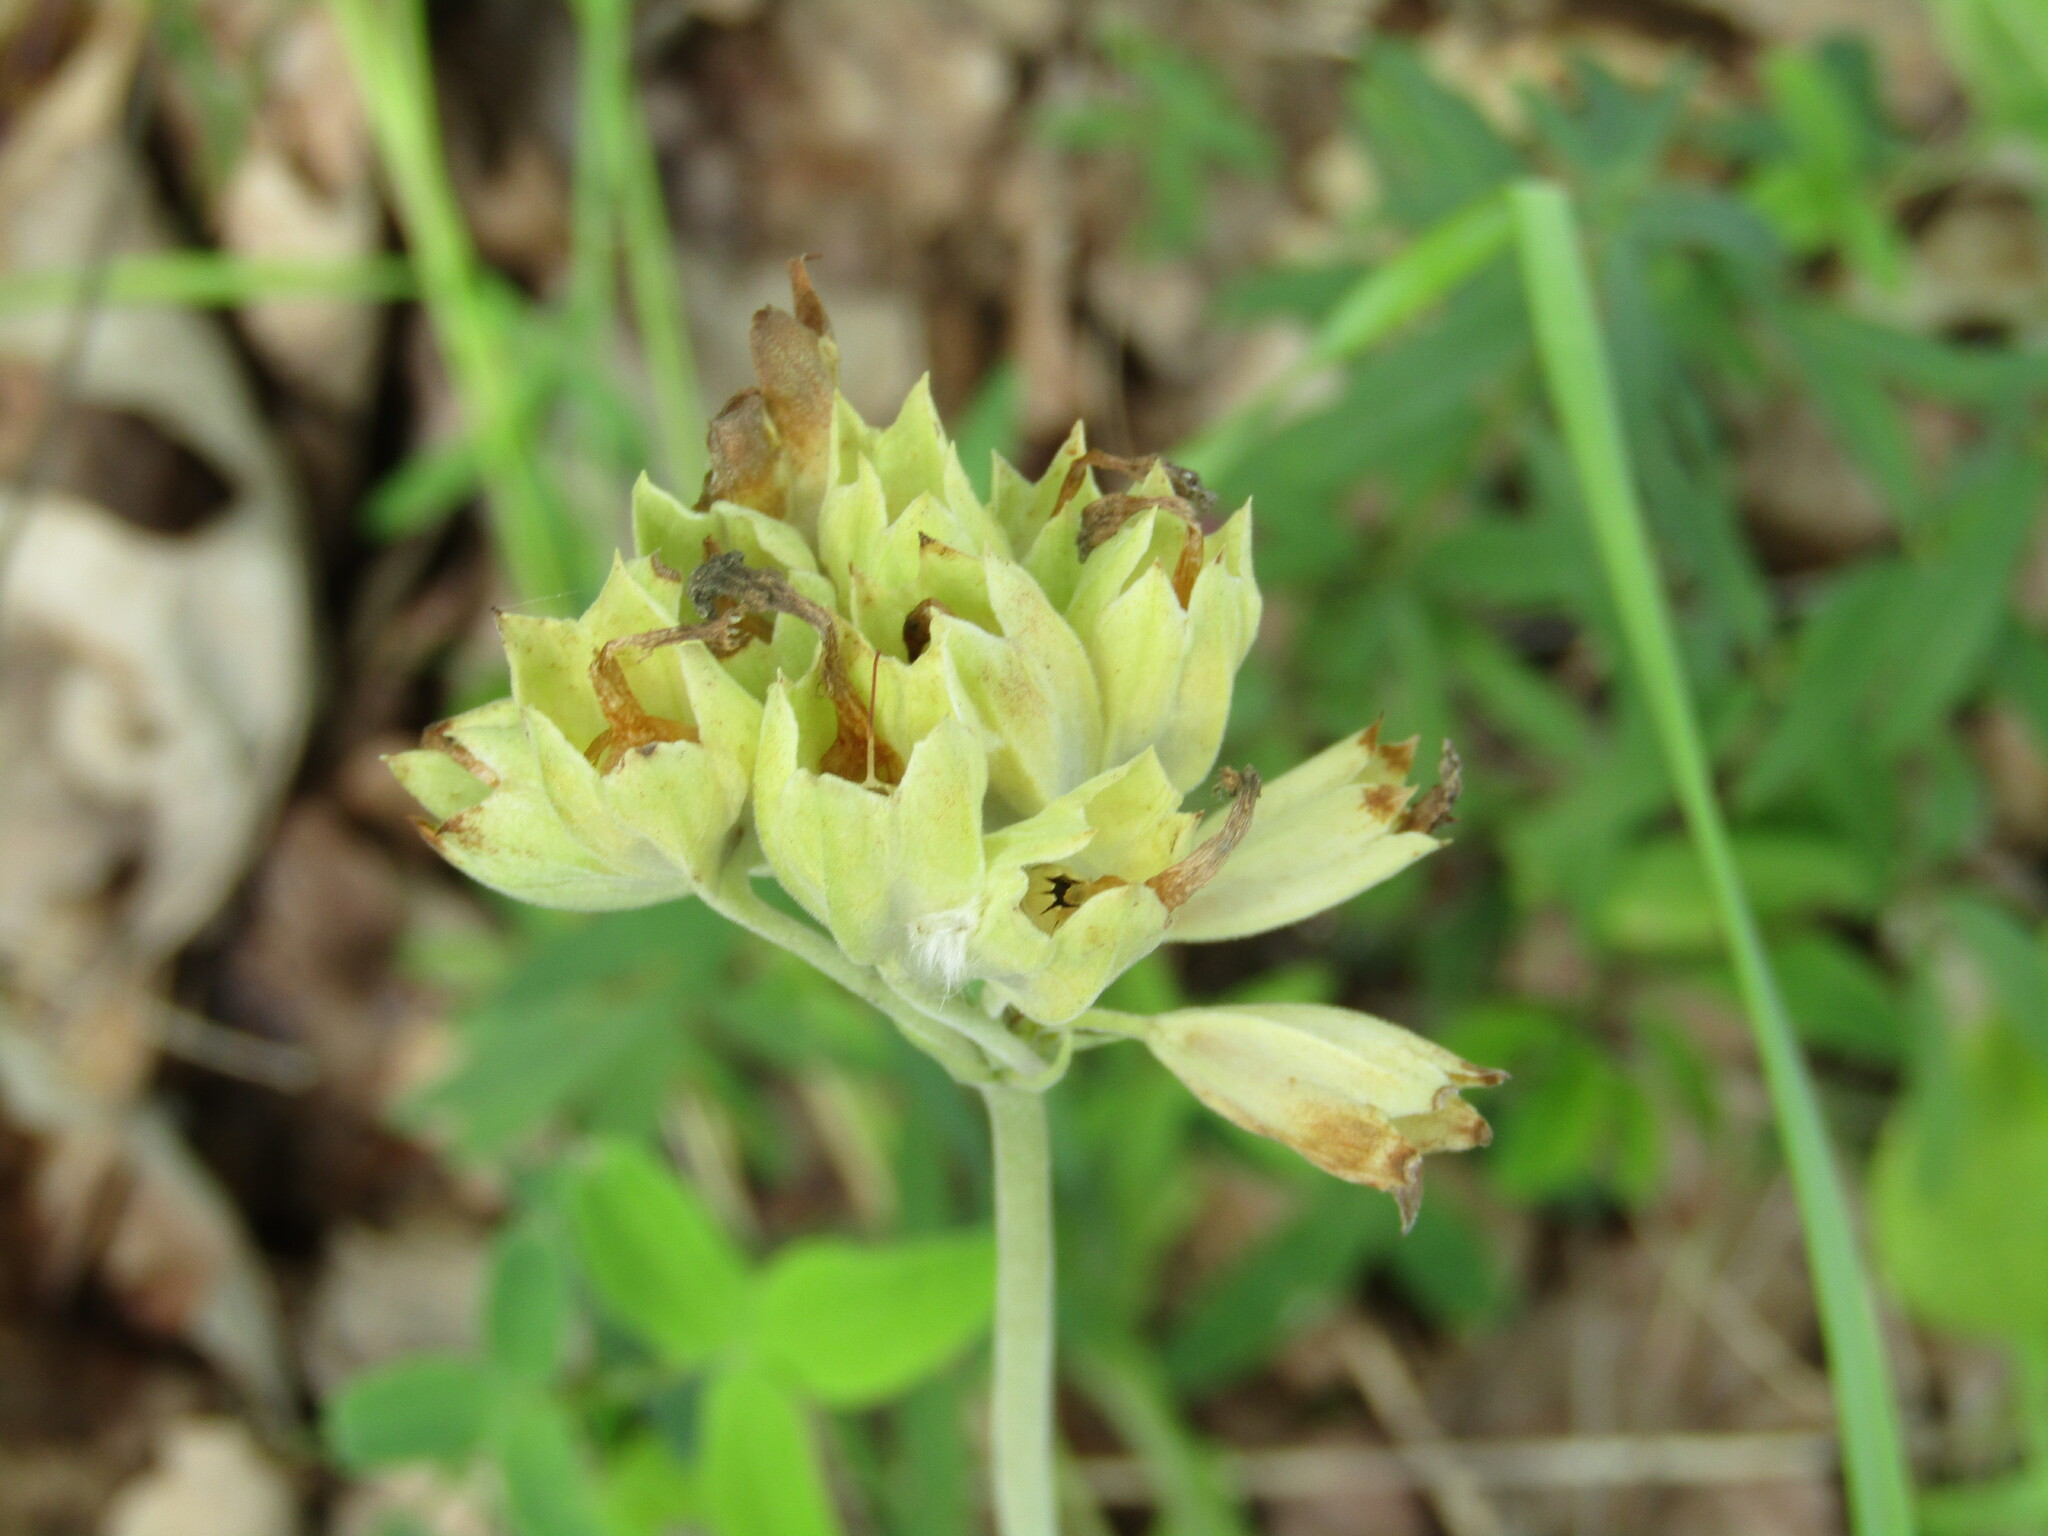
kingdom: Plantae
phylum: Tracheophyta
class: Magnoliopsida
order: Ericales
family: Primulaceae
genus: Primula
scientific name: Primula veris
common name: Cowslip
